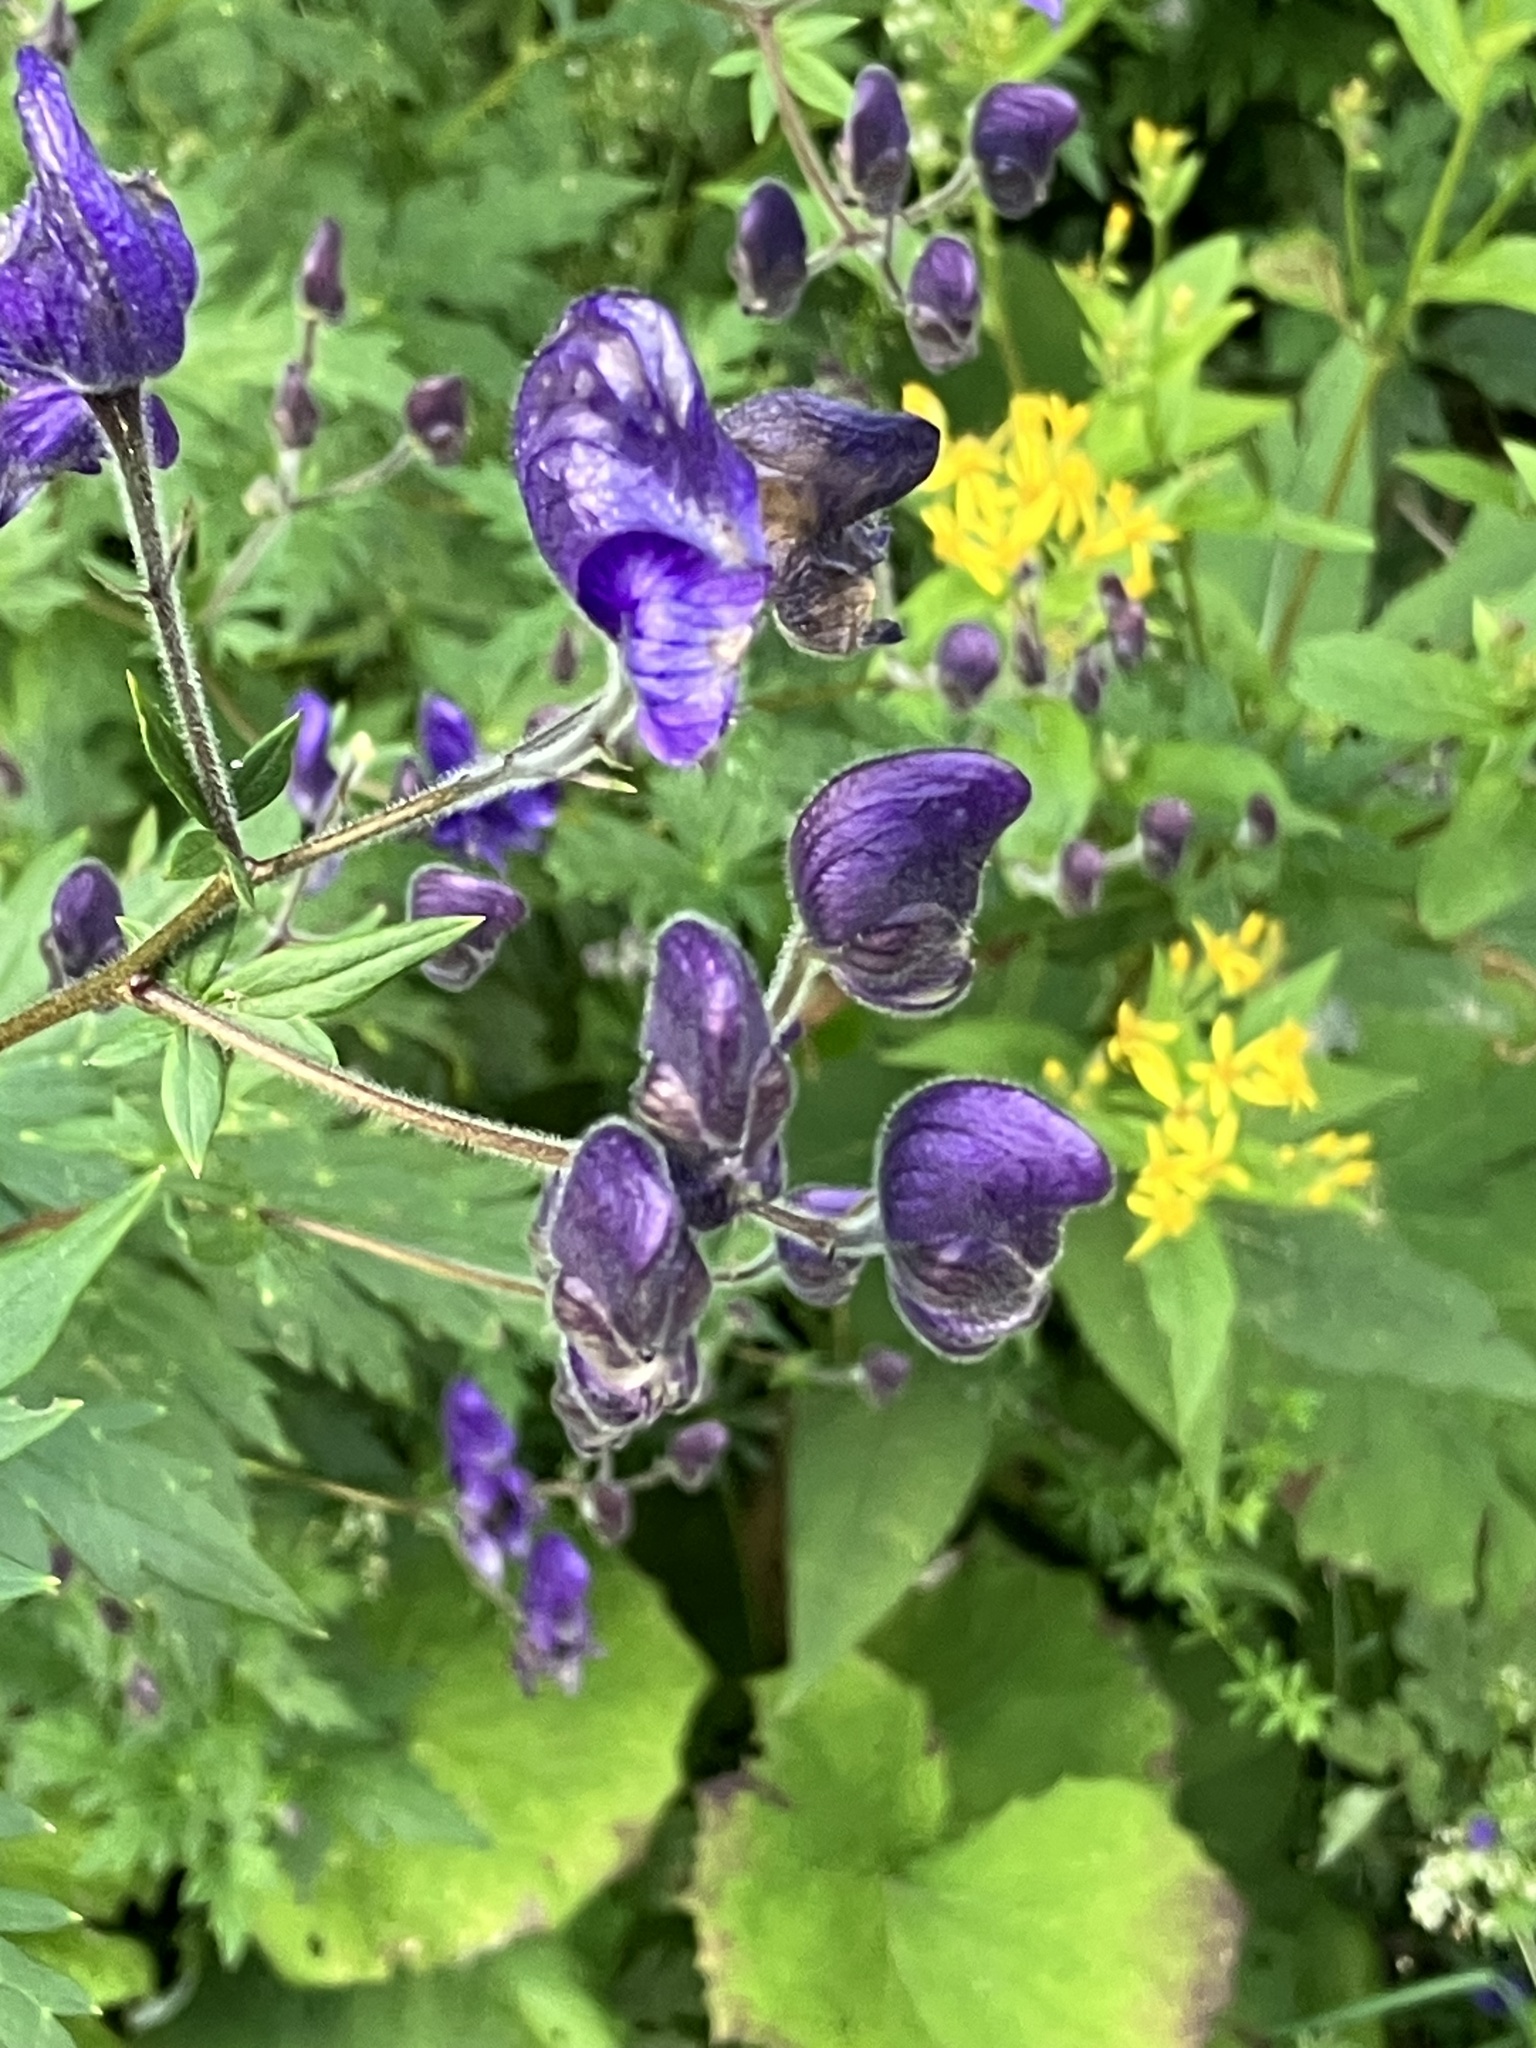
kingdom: Plantae
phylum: Tracheophyta
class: Magnoliopsida
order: Ranunculales
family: Ranunculaceae
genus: Aconitum
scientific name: Aconitum degenii
